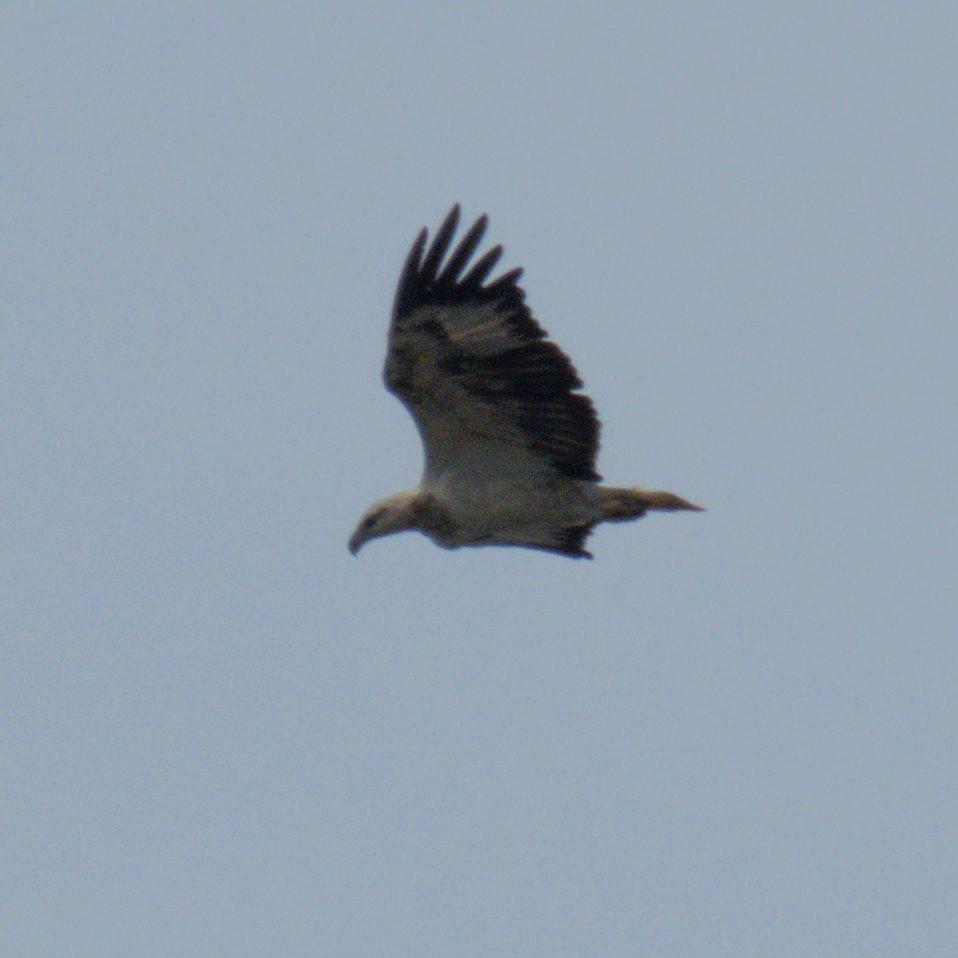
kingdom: Animalia
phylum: Chordata
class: Aves
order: Accipitriformes
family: Accipitridae
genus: Haliaeetus
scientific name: Haliaeetus leucogaster
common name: White-bellied sea eagle
